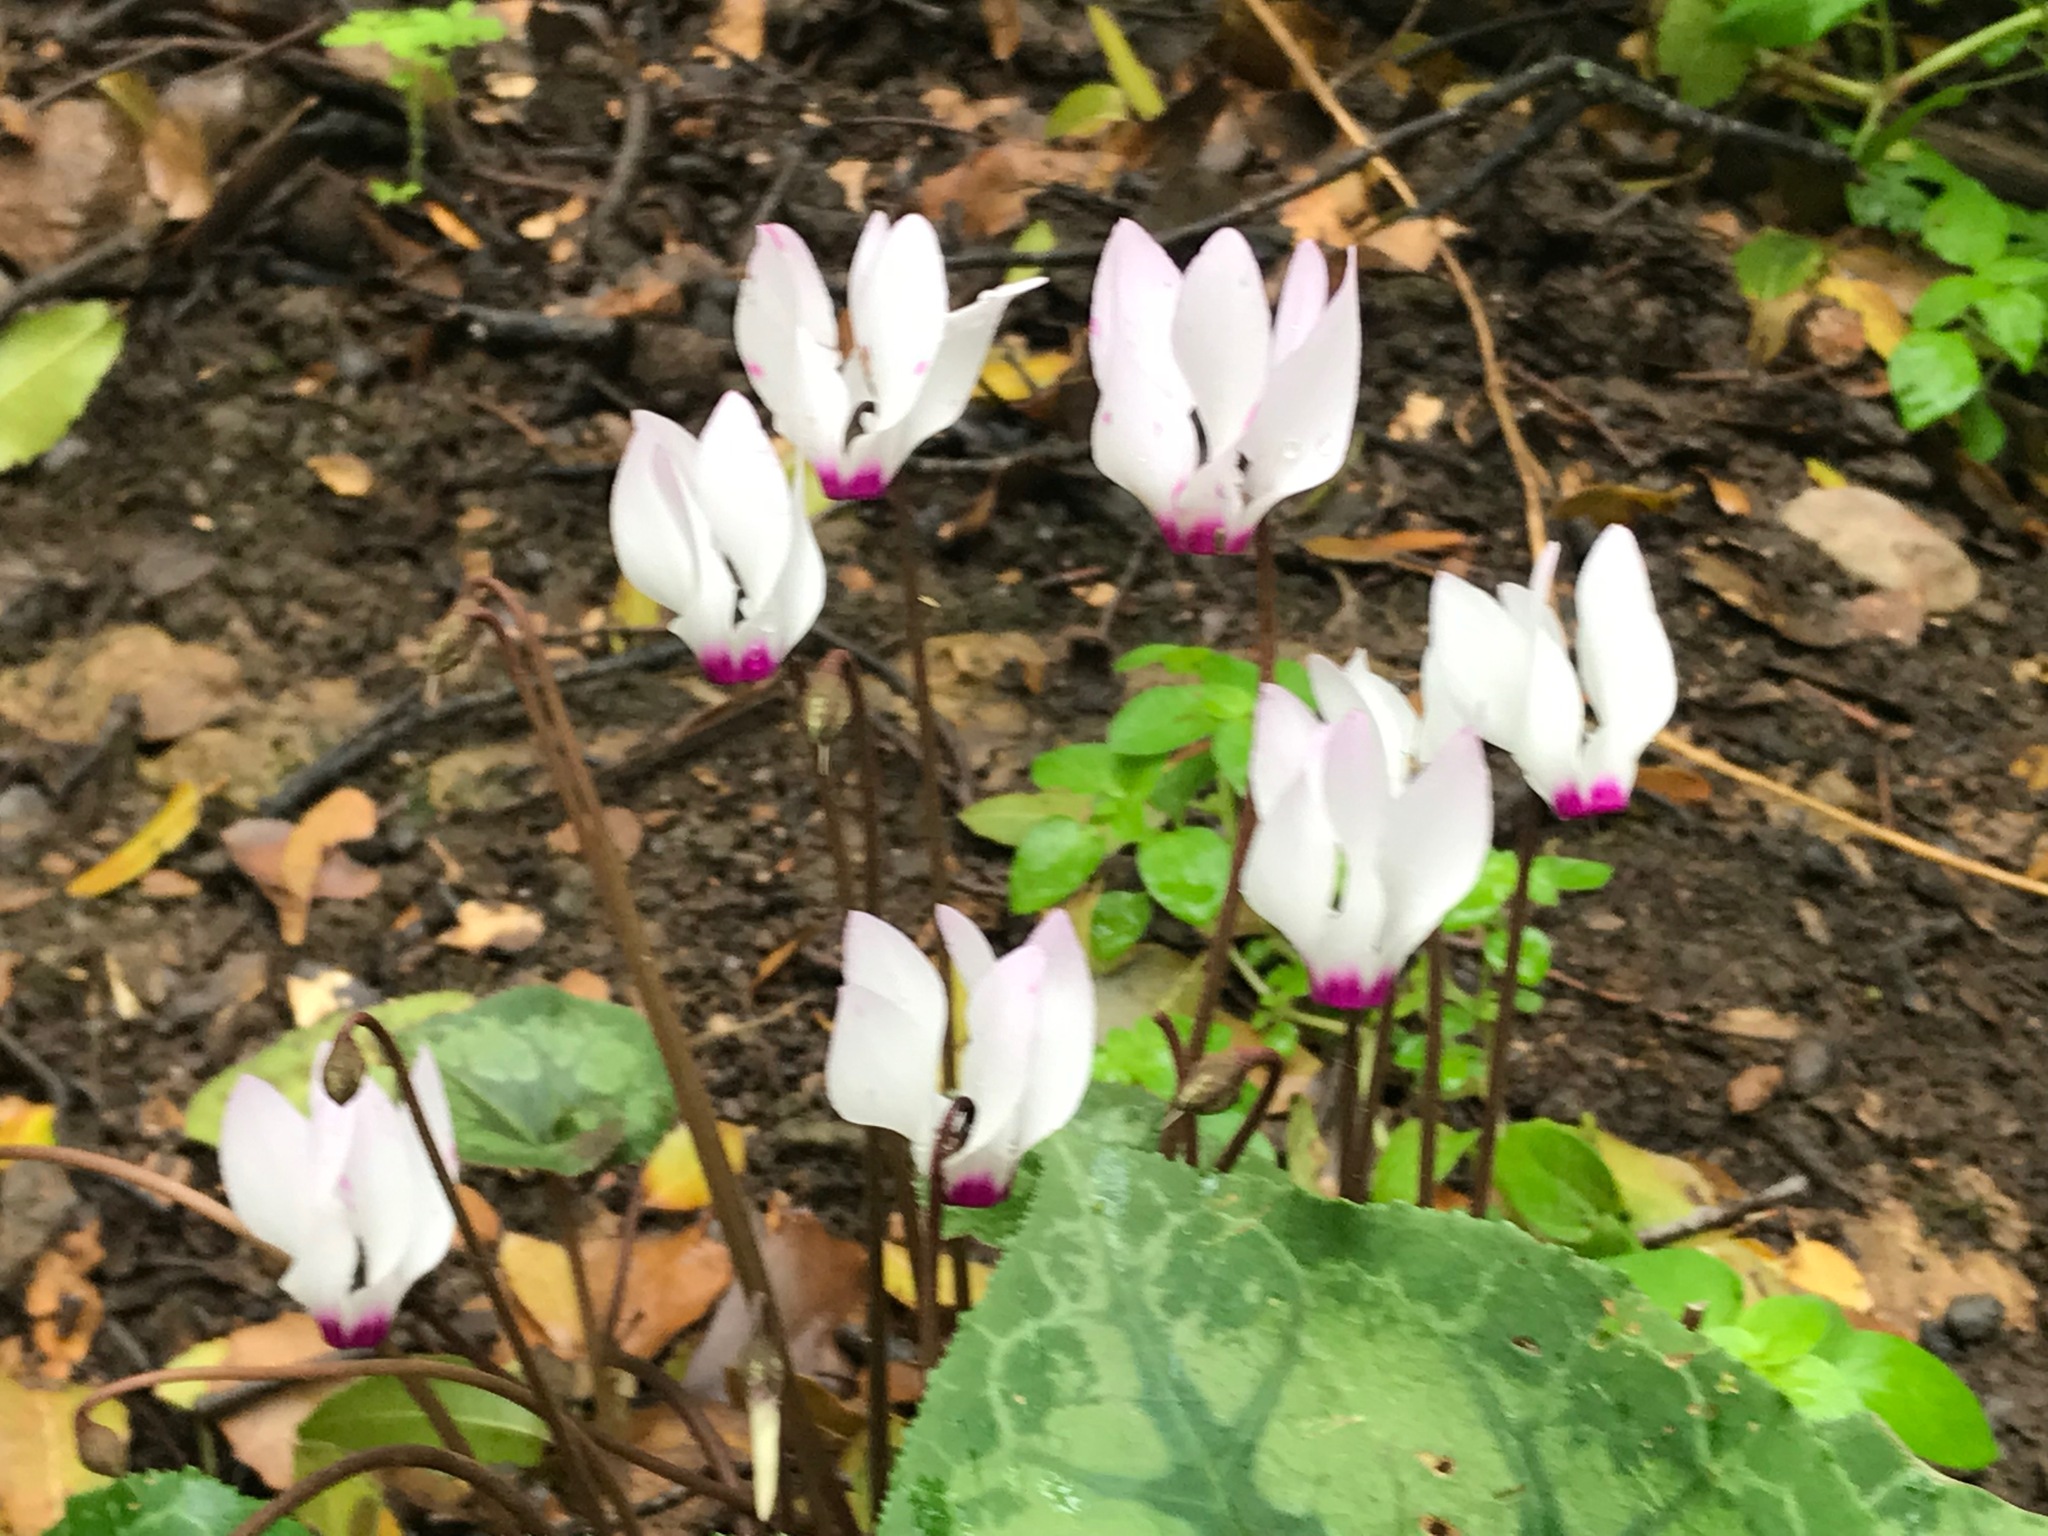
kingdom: Plantae
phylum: Tracheophyta
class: Magnoliopsida
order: Ericales
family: Primulaceae
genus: Cyclamen
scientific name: Cyclamen persicum
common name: Florist's cyclamen
